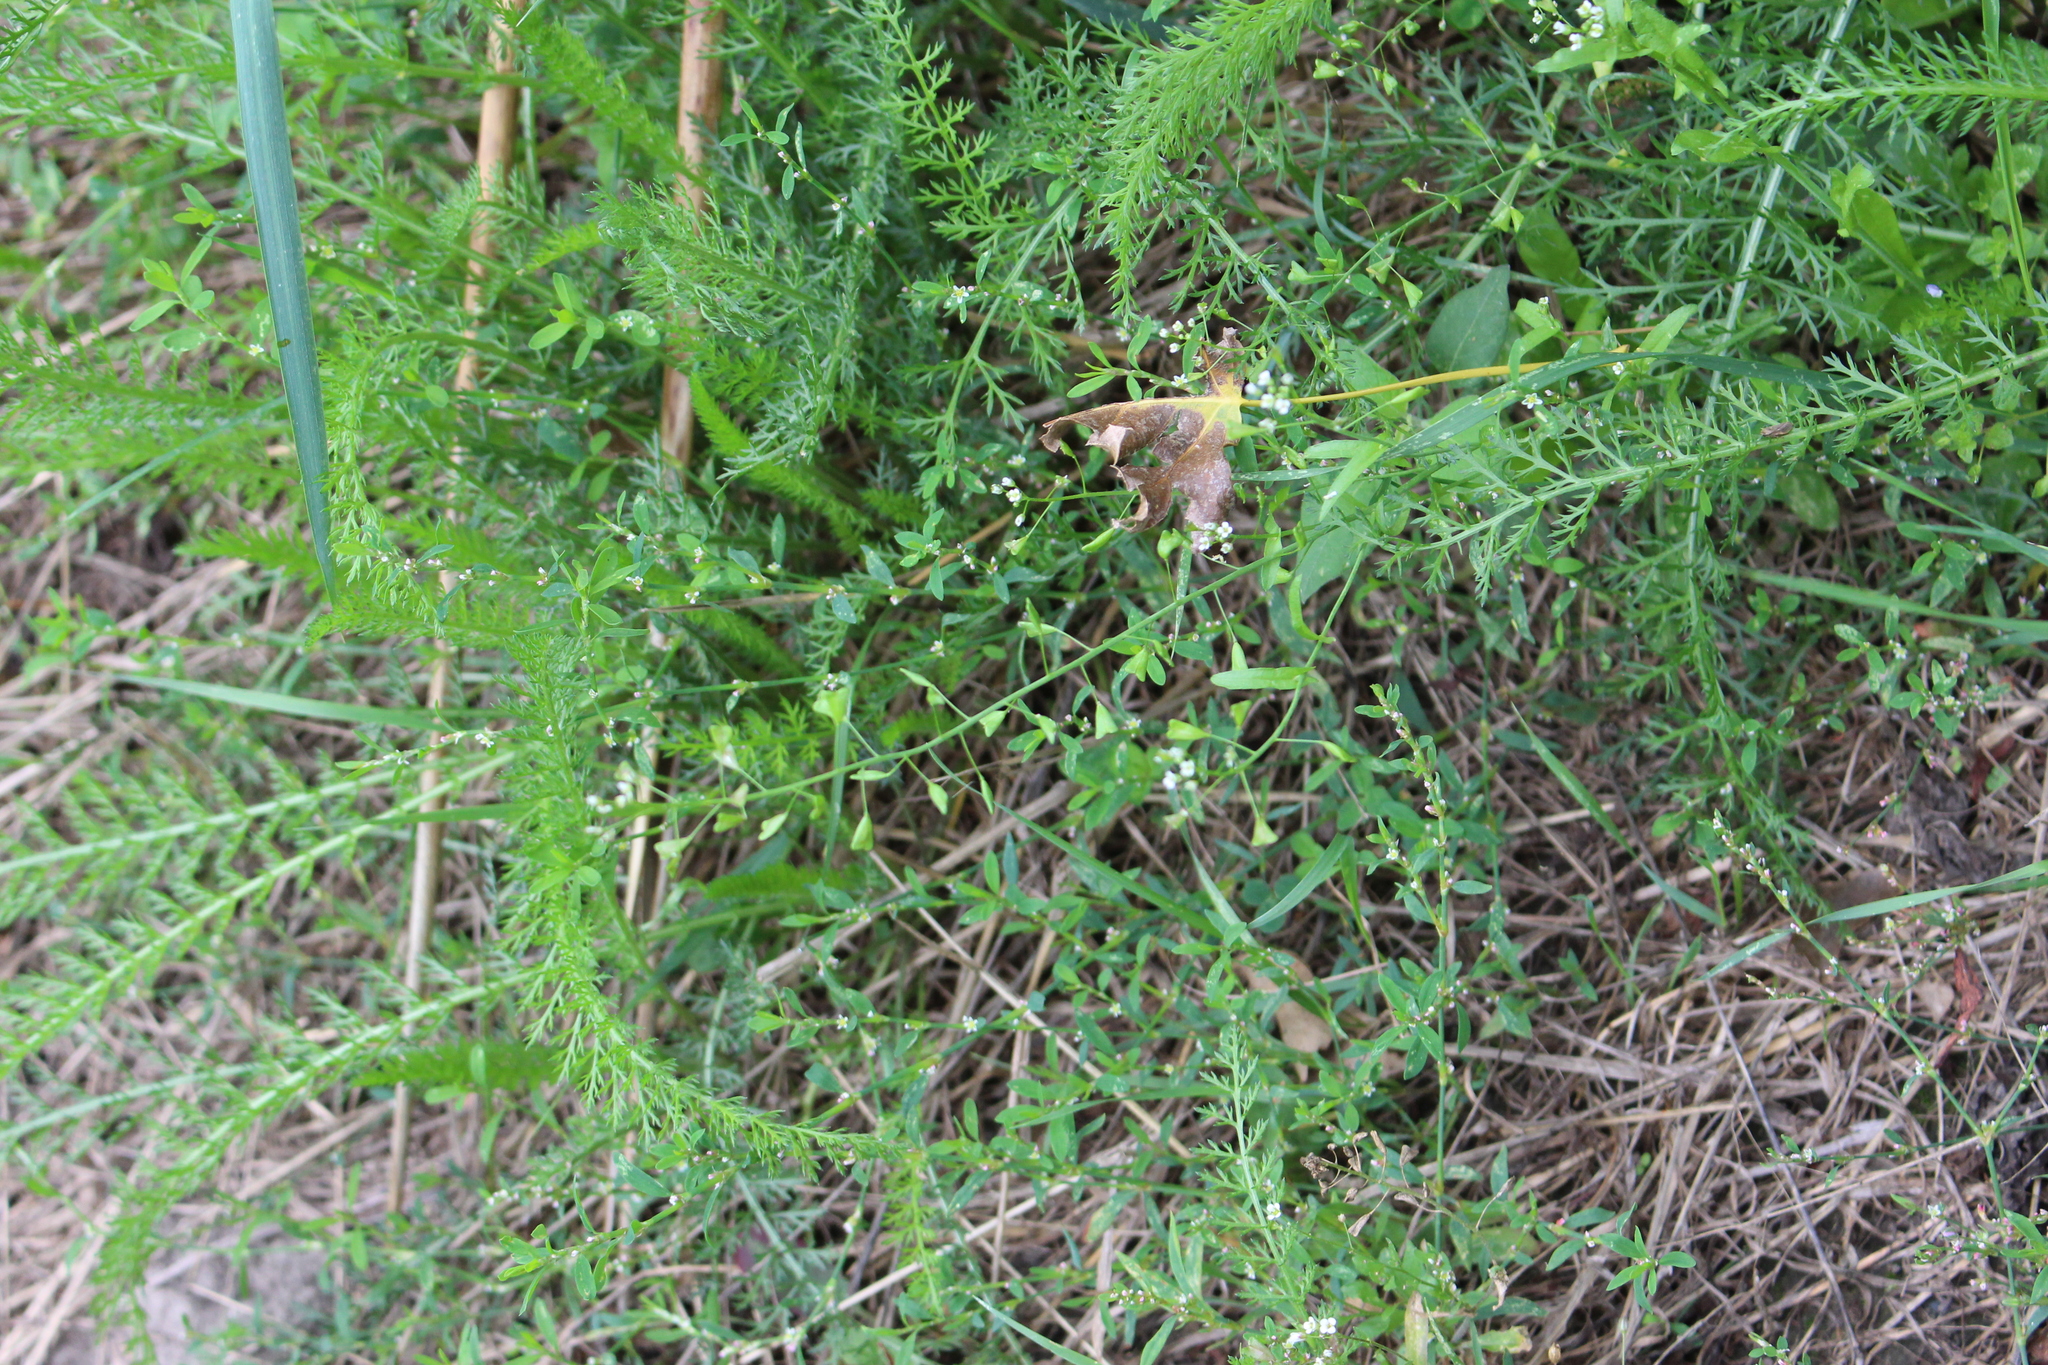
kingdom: Plantae
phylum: Tracheophyta
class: Magnoliopsida
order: Brassicales
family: Brassicaceae
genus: Capsella
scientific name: Capsella bursa-pastoris
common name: Shepherd's purse
